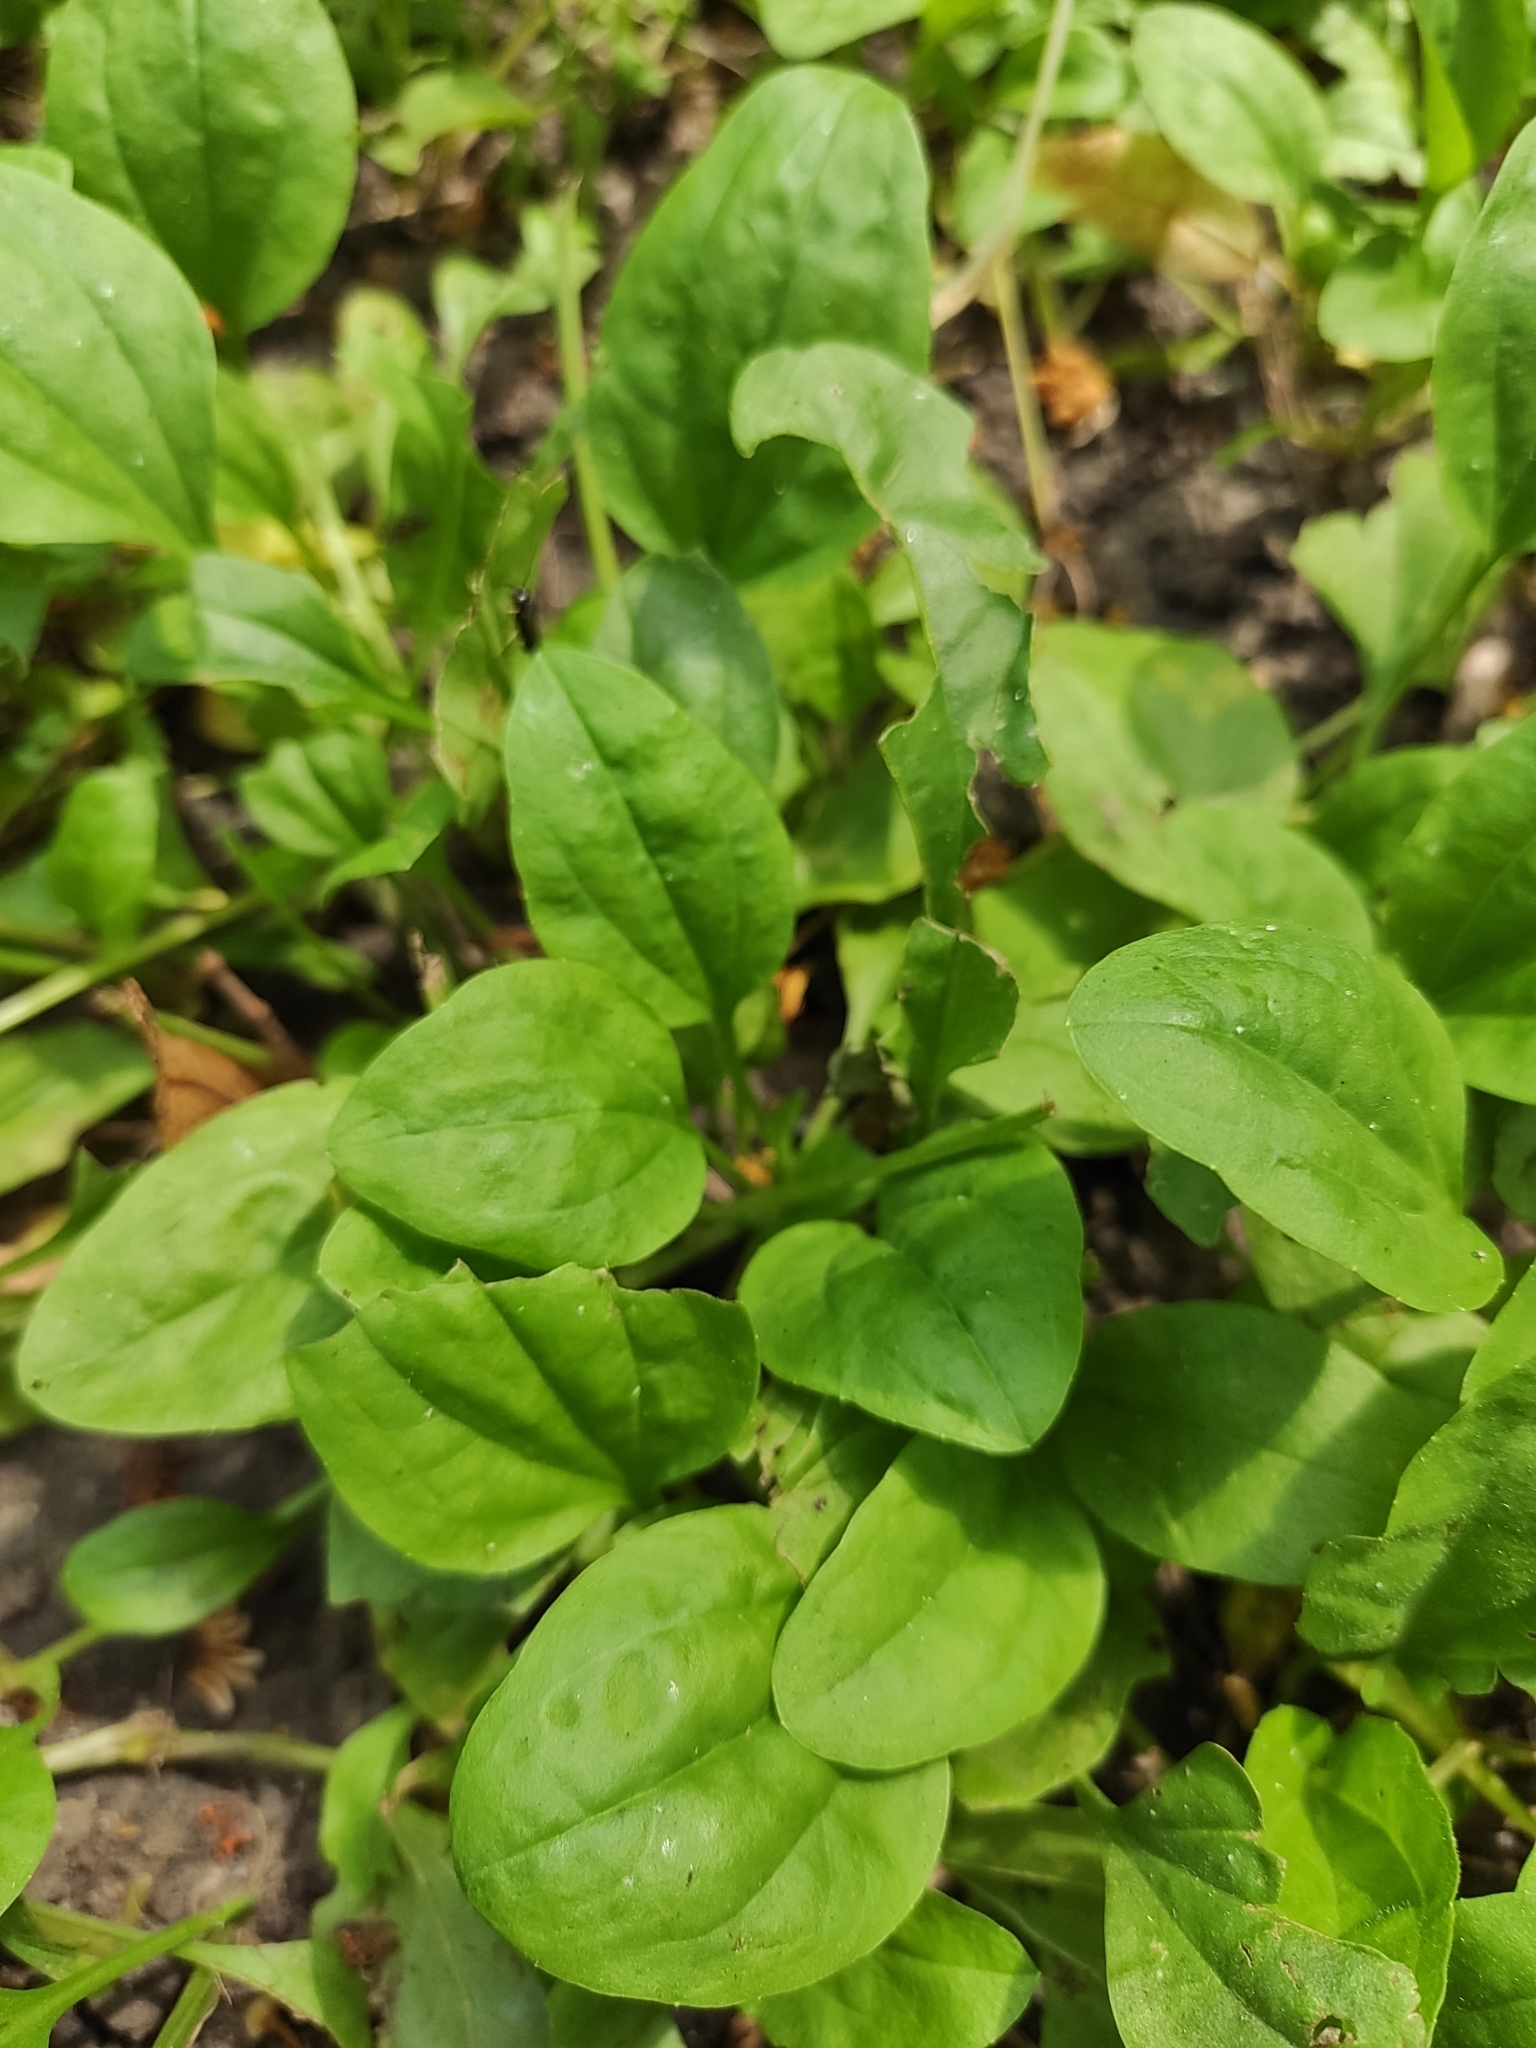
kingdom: Plantae
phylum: Tracheophyta
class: Magnoliopsida
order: Lamiales
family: Plantaginaceae
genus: Plantago
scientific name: Plantago major
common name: Common plantain
